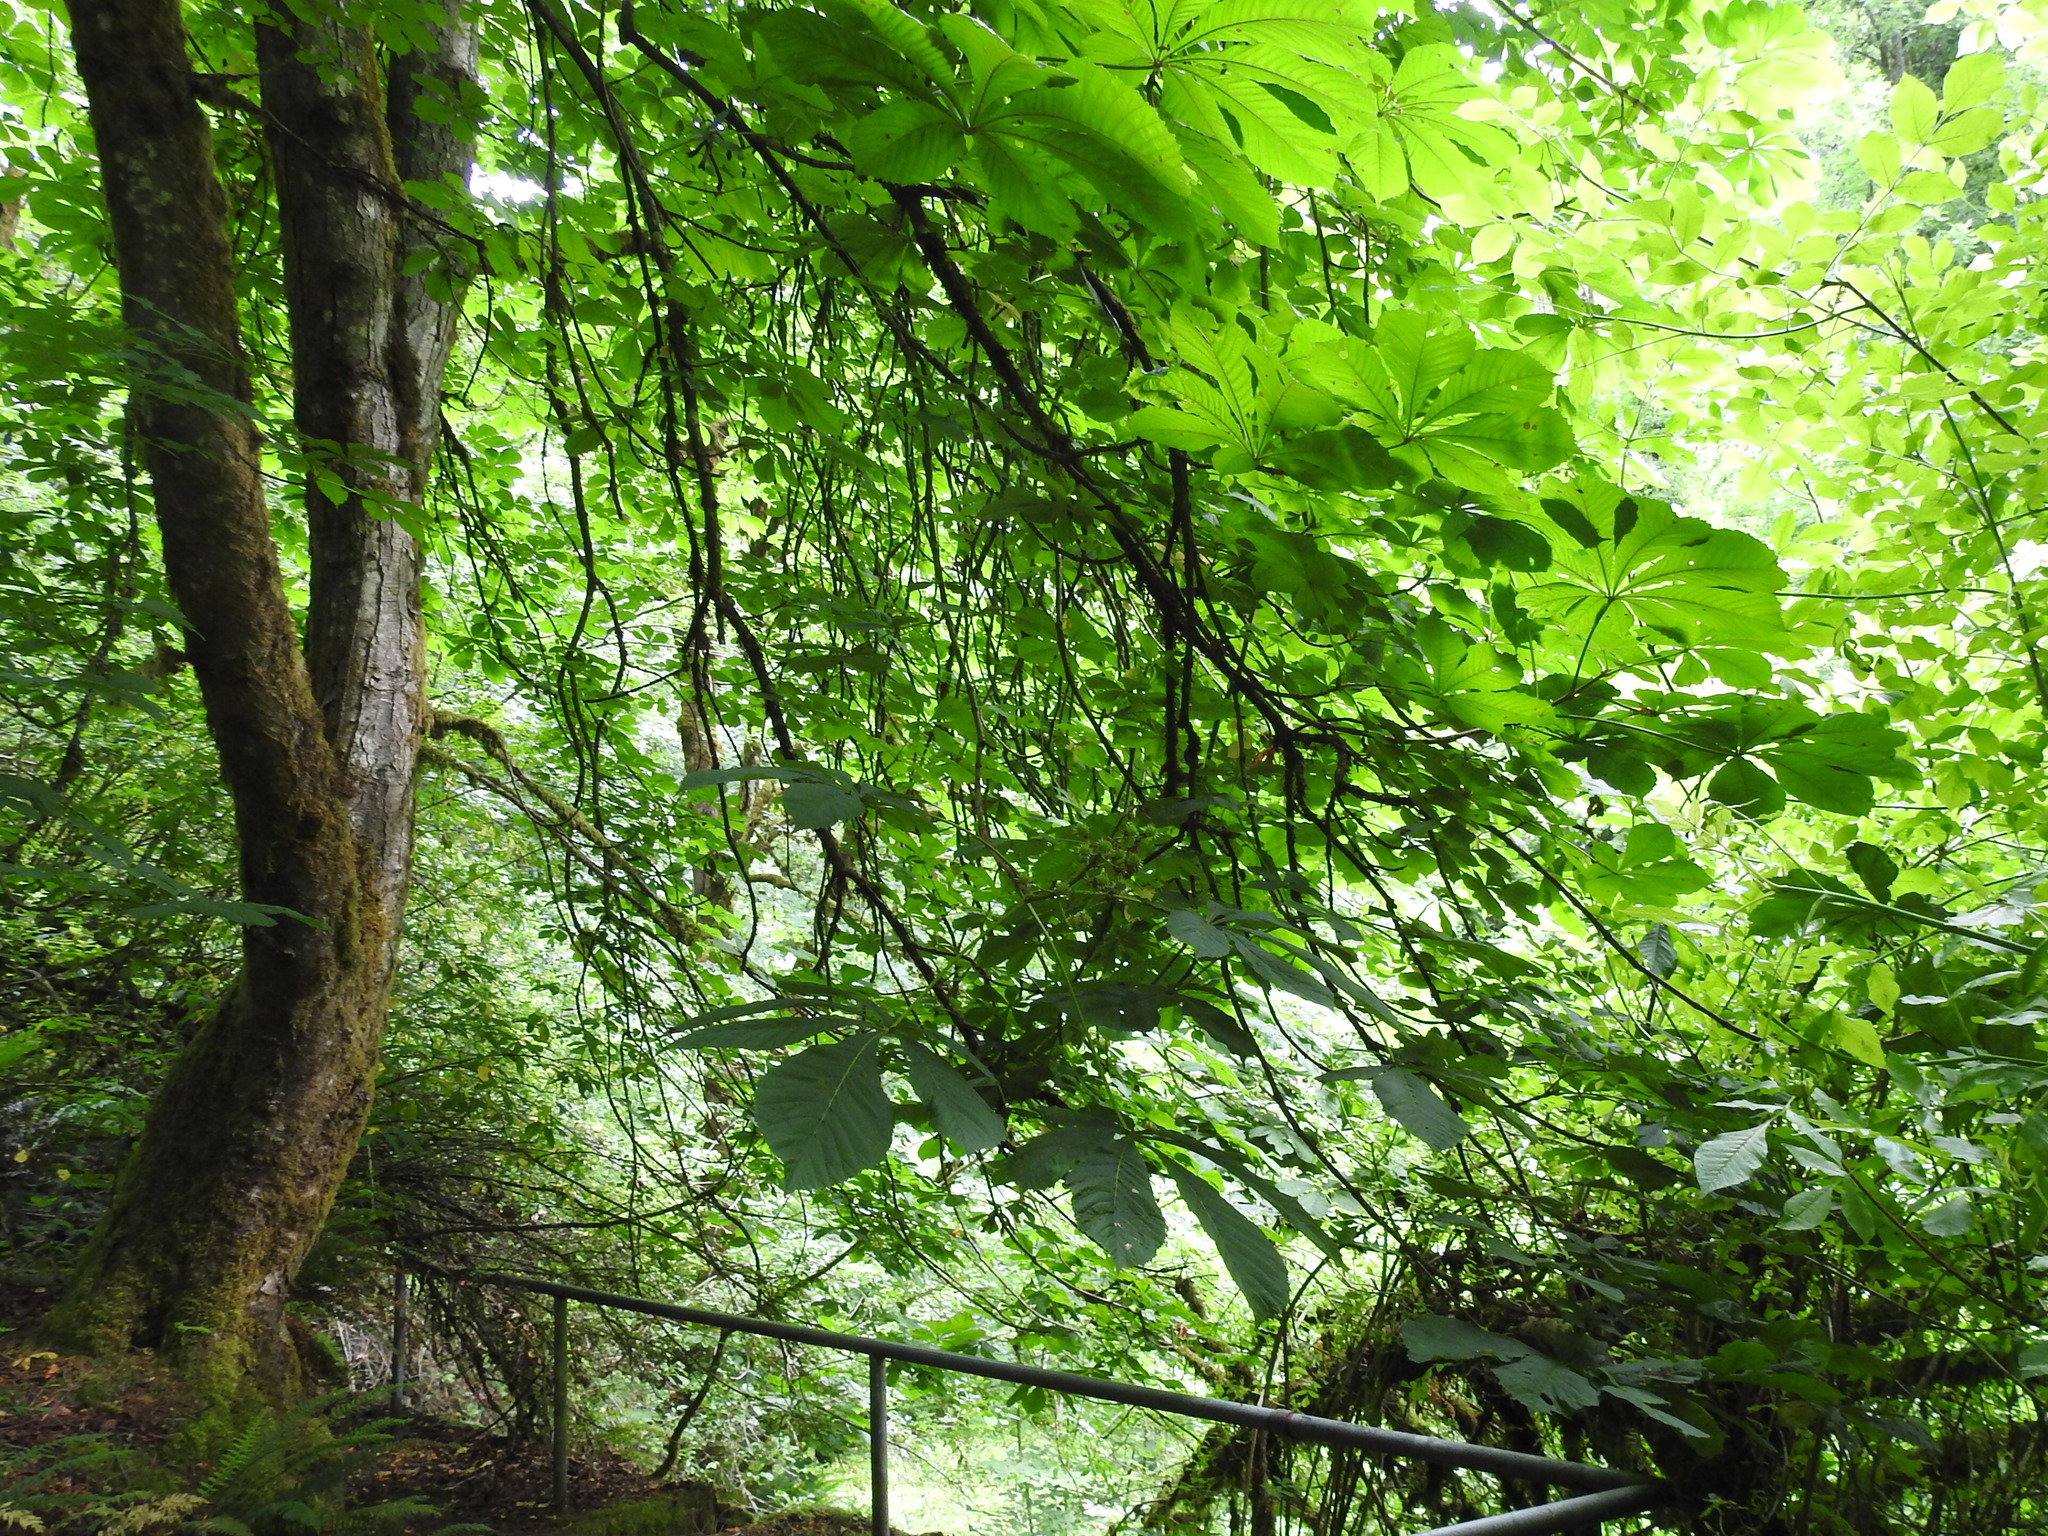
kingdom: Plantae
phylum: Tracheophyta
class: Magnoliopsida
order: Sapindales
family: Sapindaceae
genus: Aesculus
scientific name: Aesculus hippocastanum
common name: Horse-chestnut
